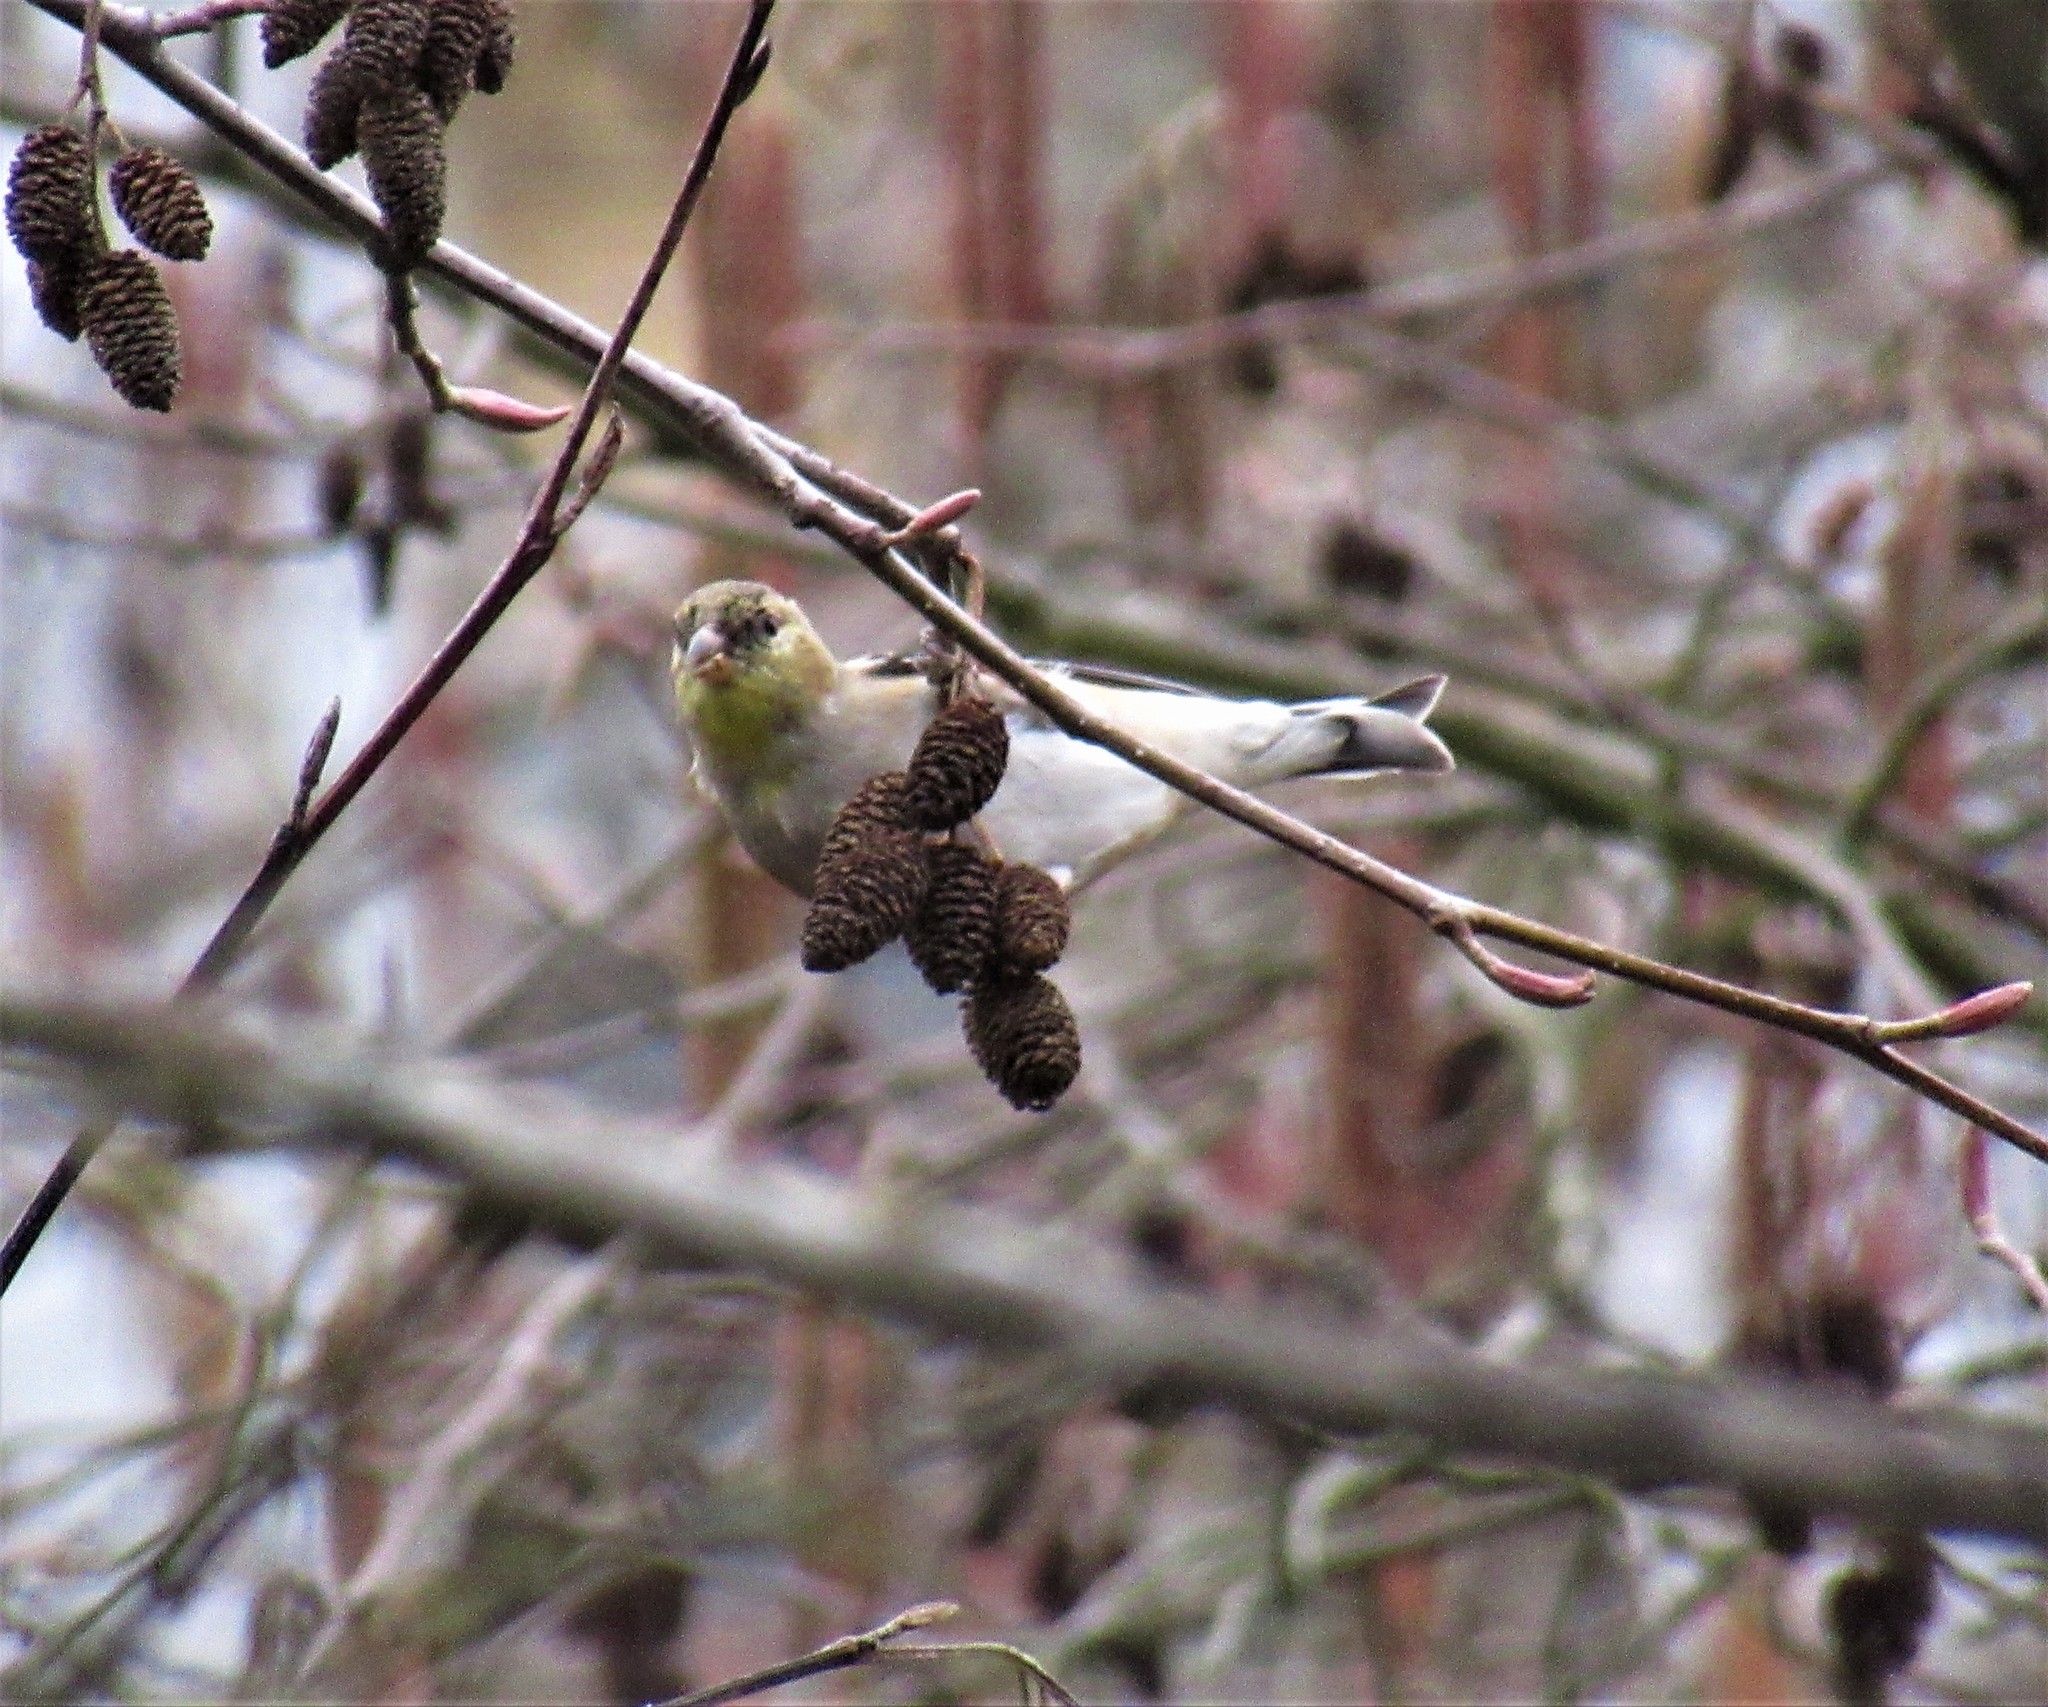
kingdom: Animalia
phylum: Chordata
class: Aves
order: Passeriformes
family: Fringillidae
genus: Spinus
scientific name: Spinus tristis
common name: American goldfinch
